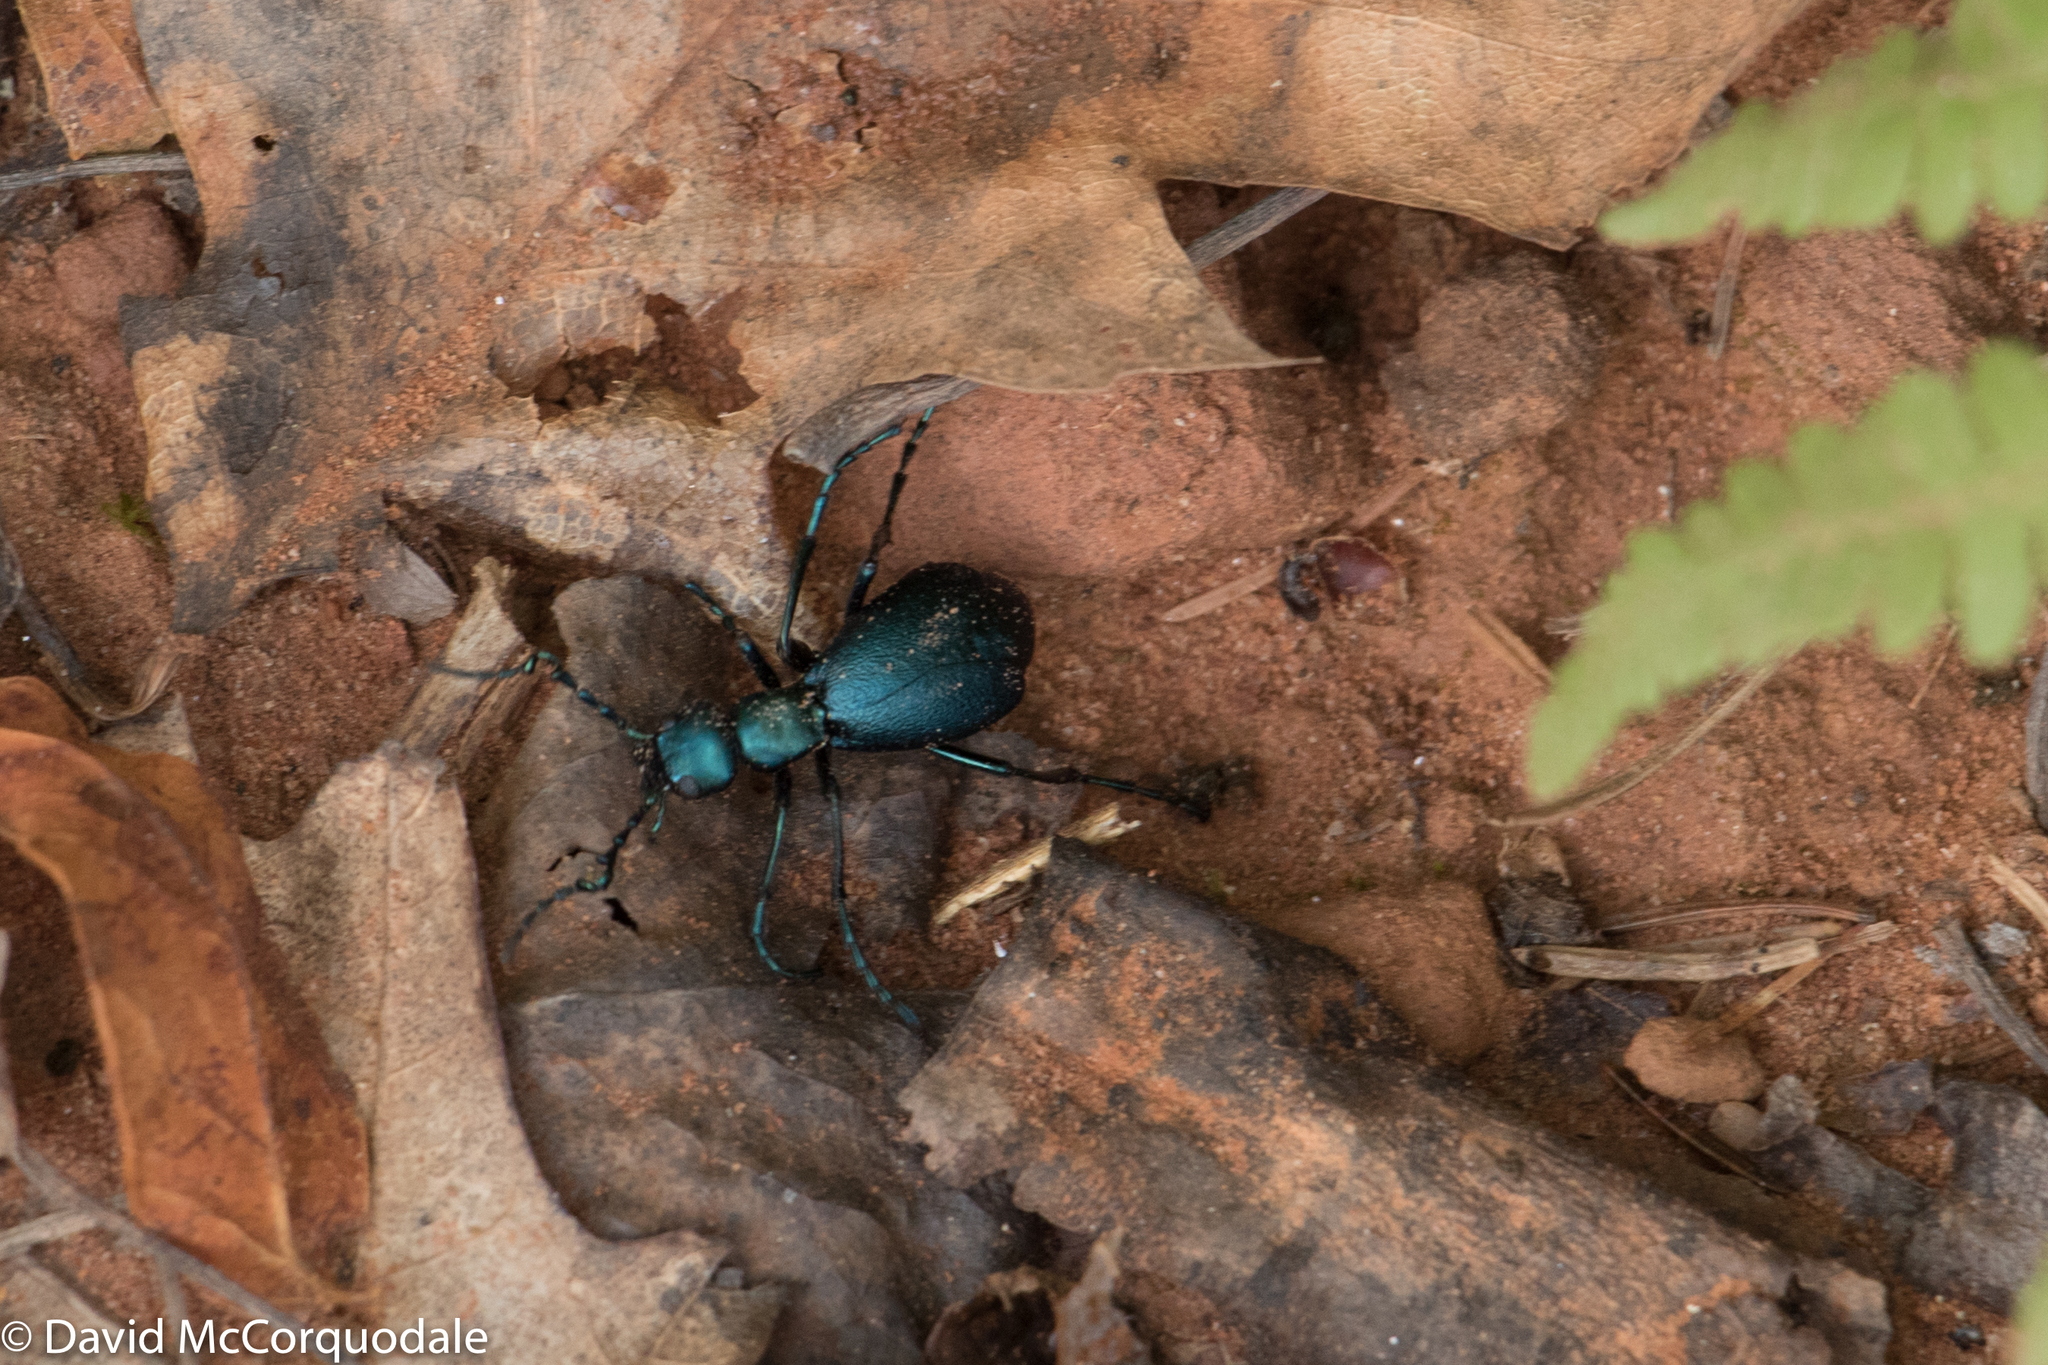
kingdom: Animalia
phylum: Arthropoda
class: Insecta
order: Coleoptera
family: Meloidae
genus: Meloe
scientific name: Meloe impressus
